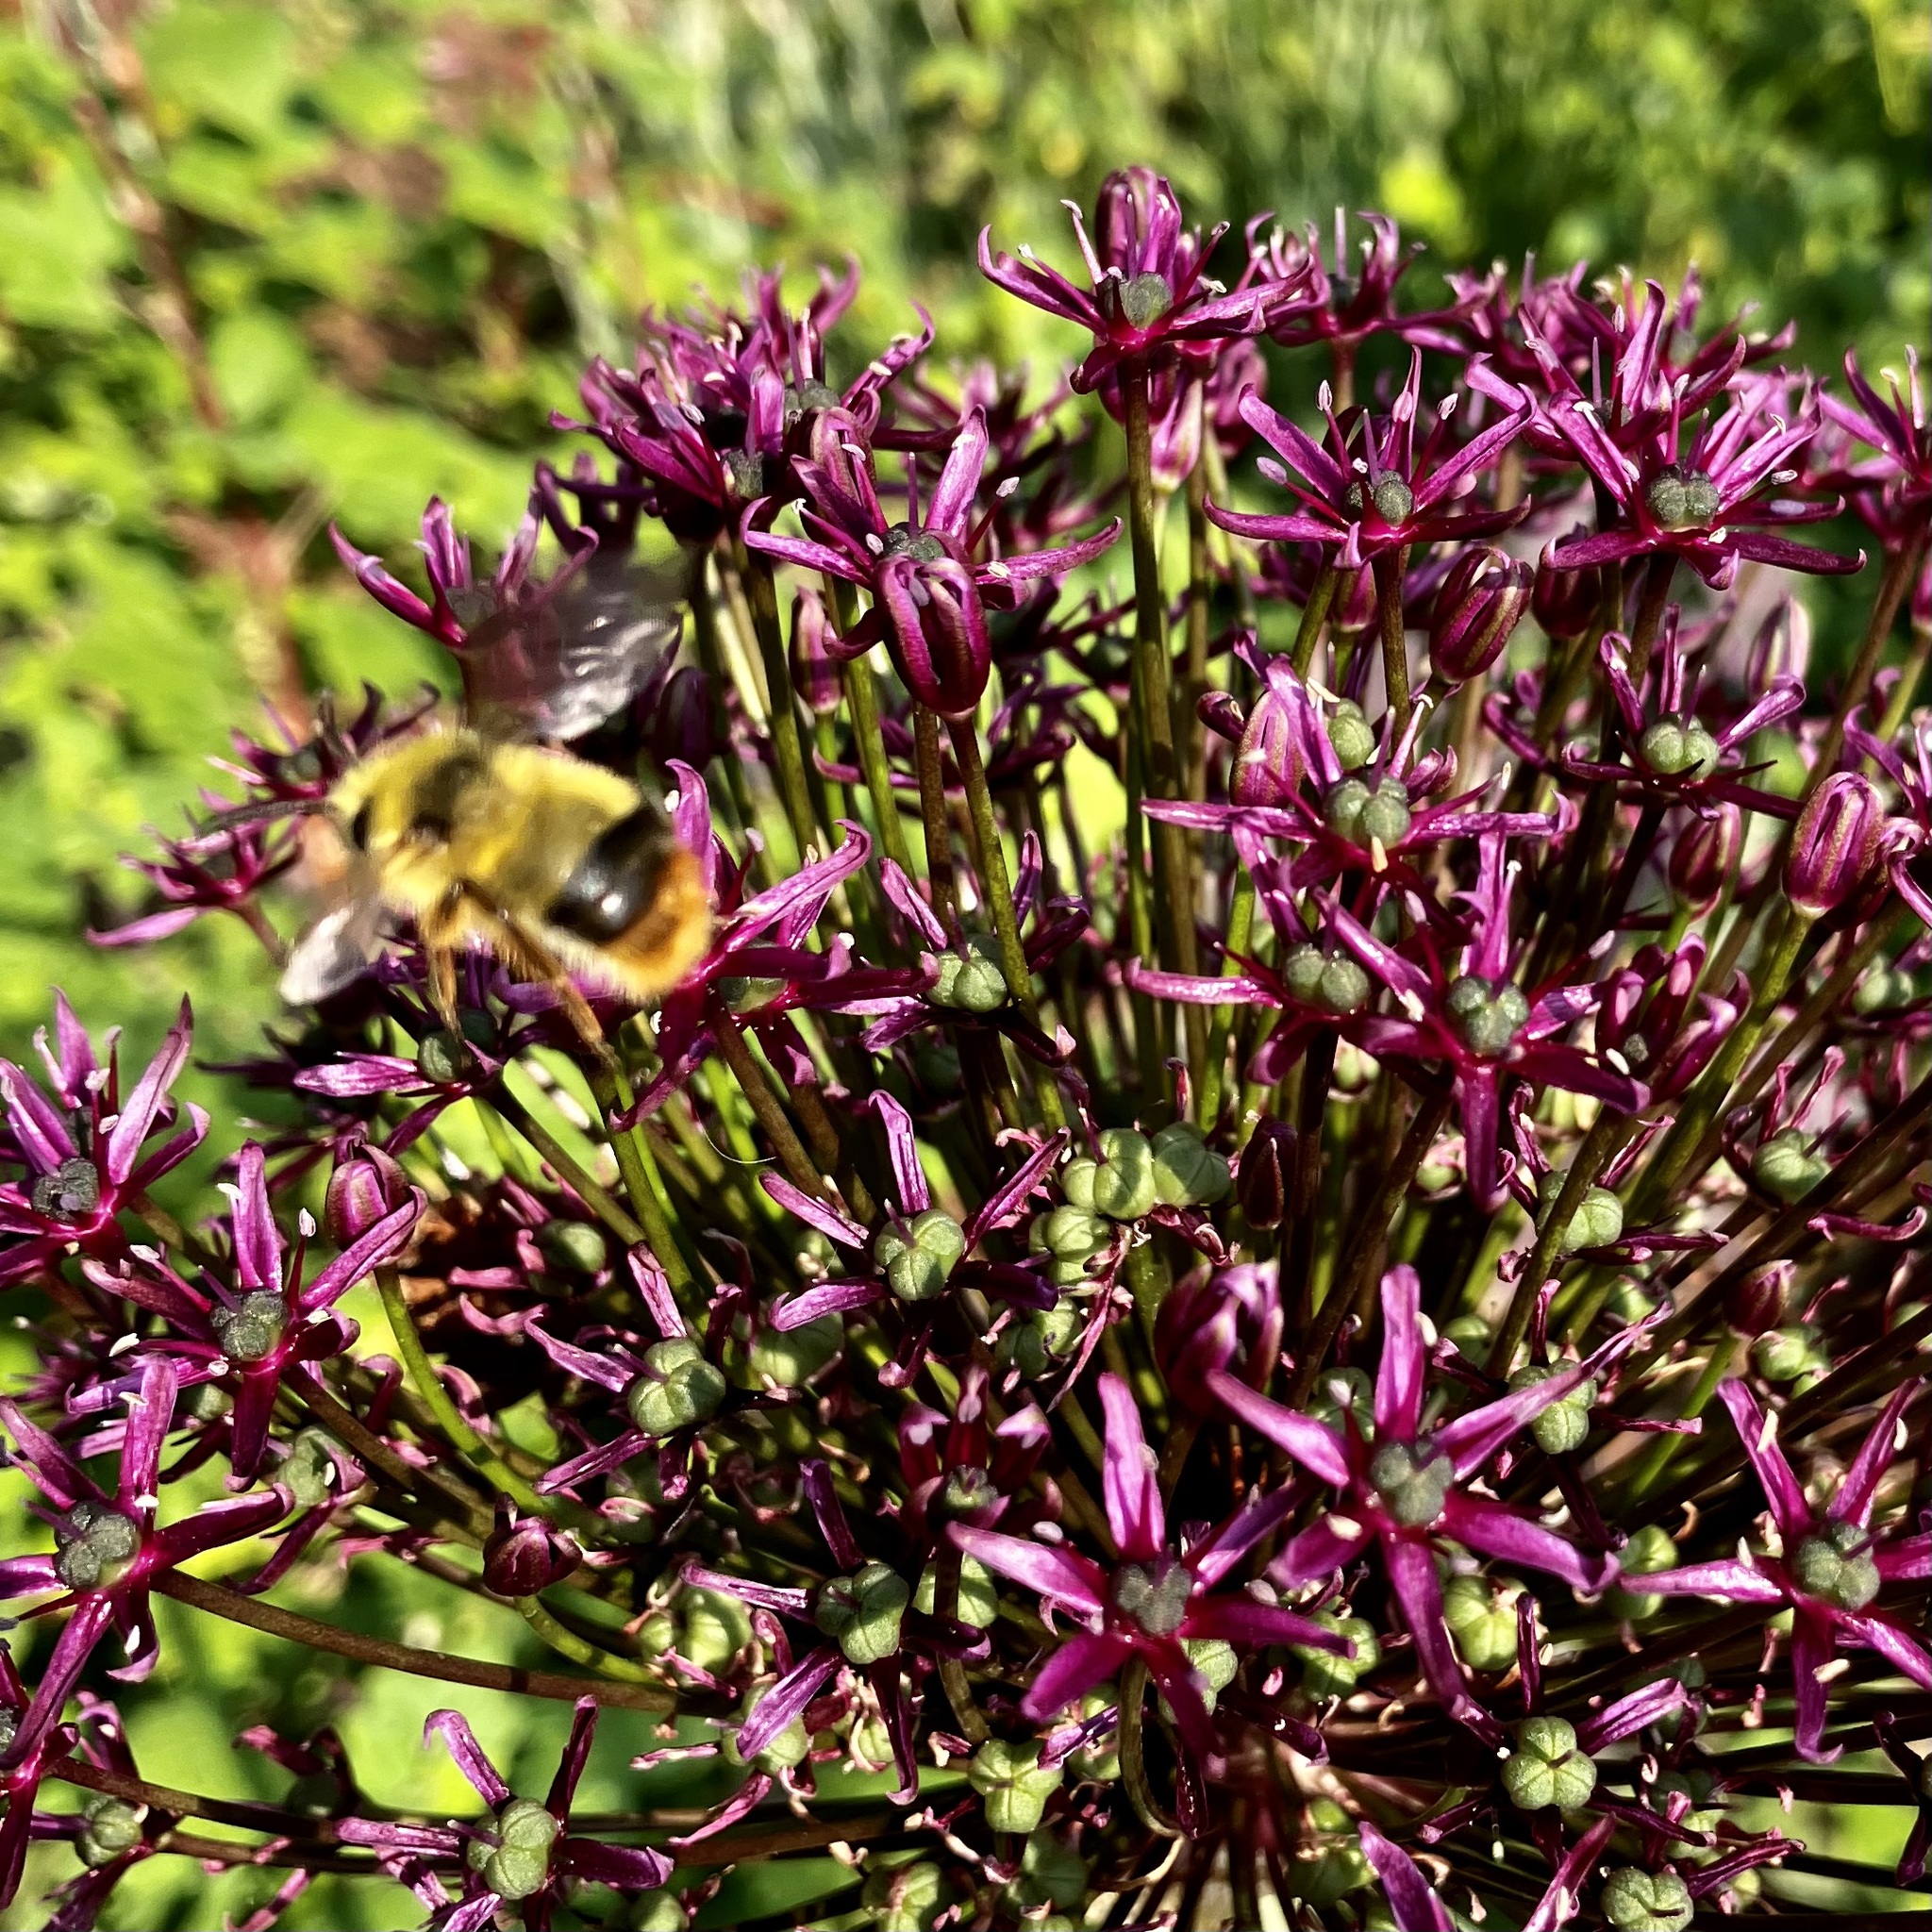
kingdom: Animalia
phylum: Arthropoda
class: Insecta
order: Hymenoptera
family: Apidae
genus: Bombus
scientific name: Bombus mixtus
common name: Fuzzy-horned bumble bee
